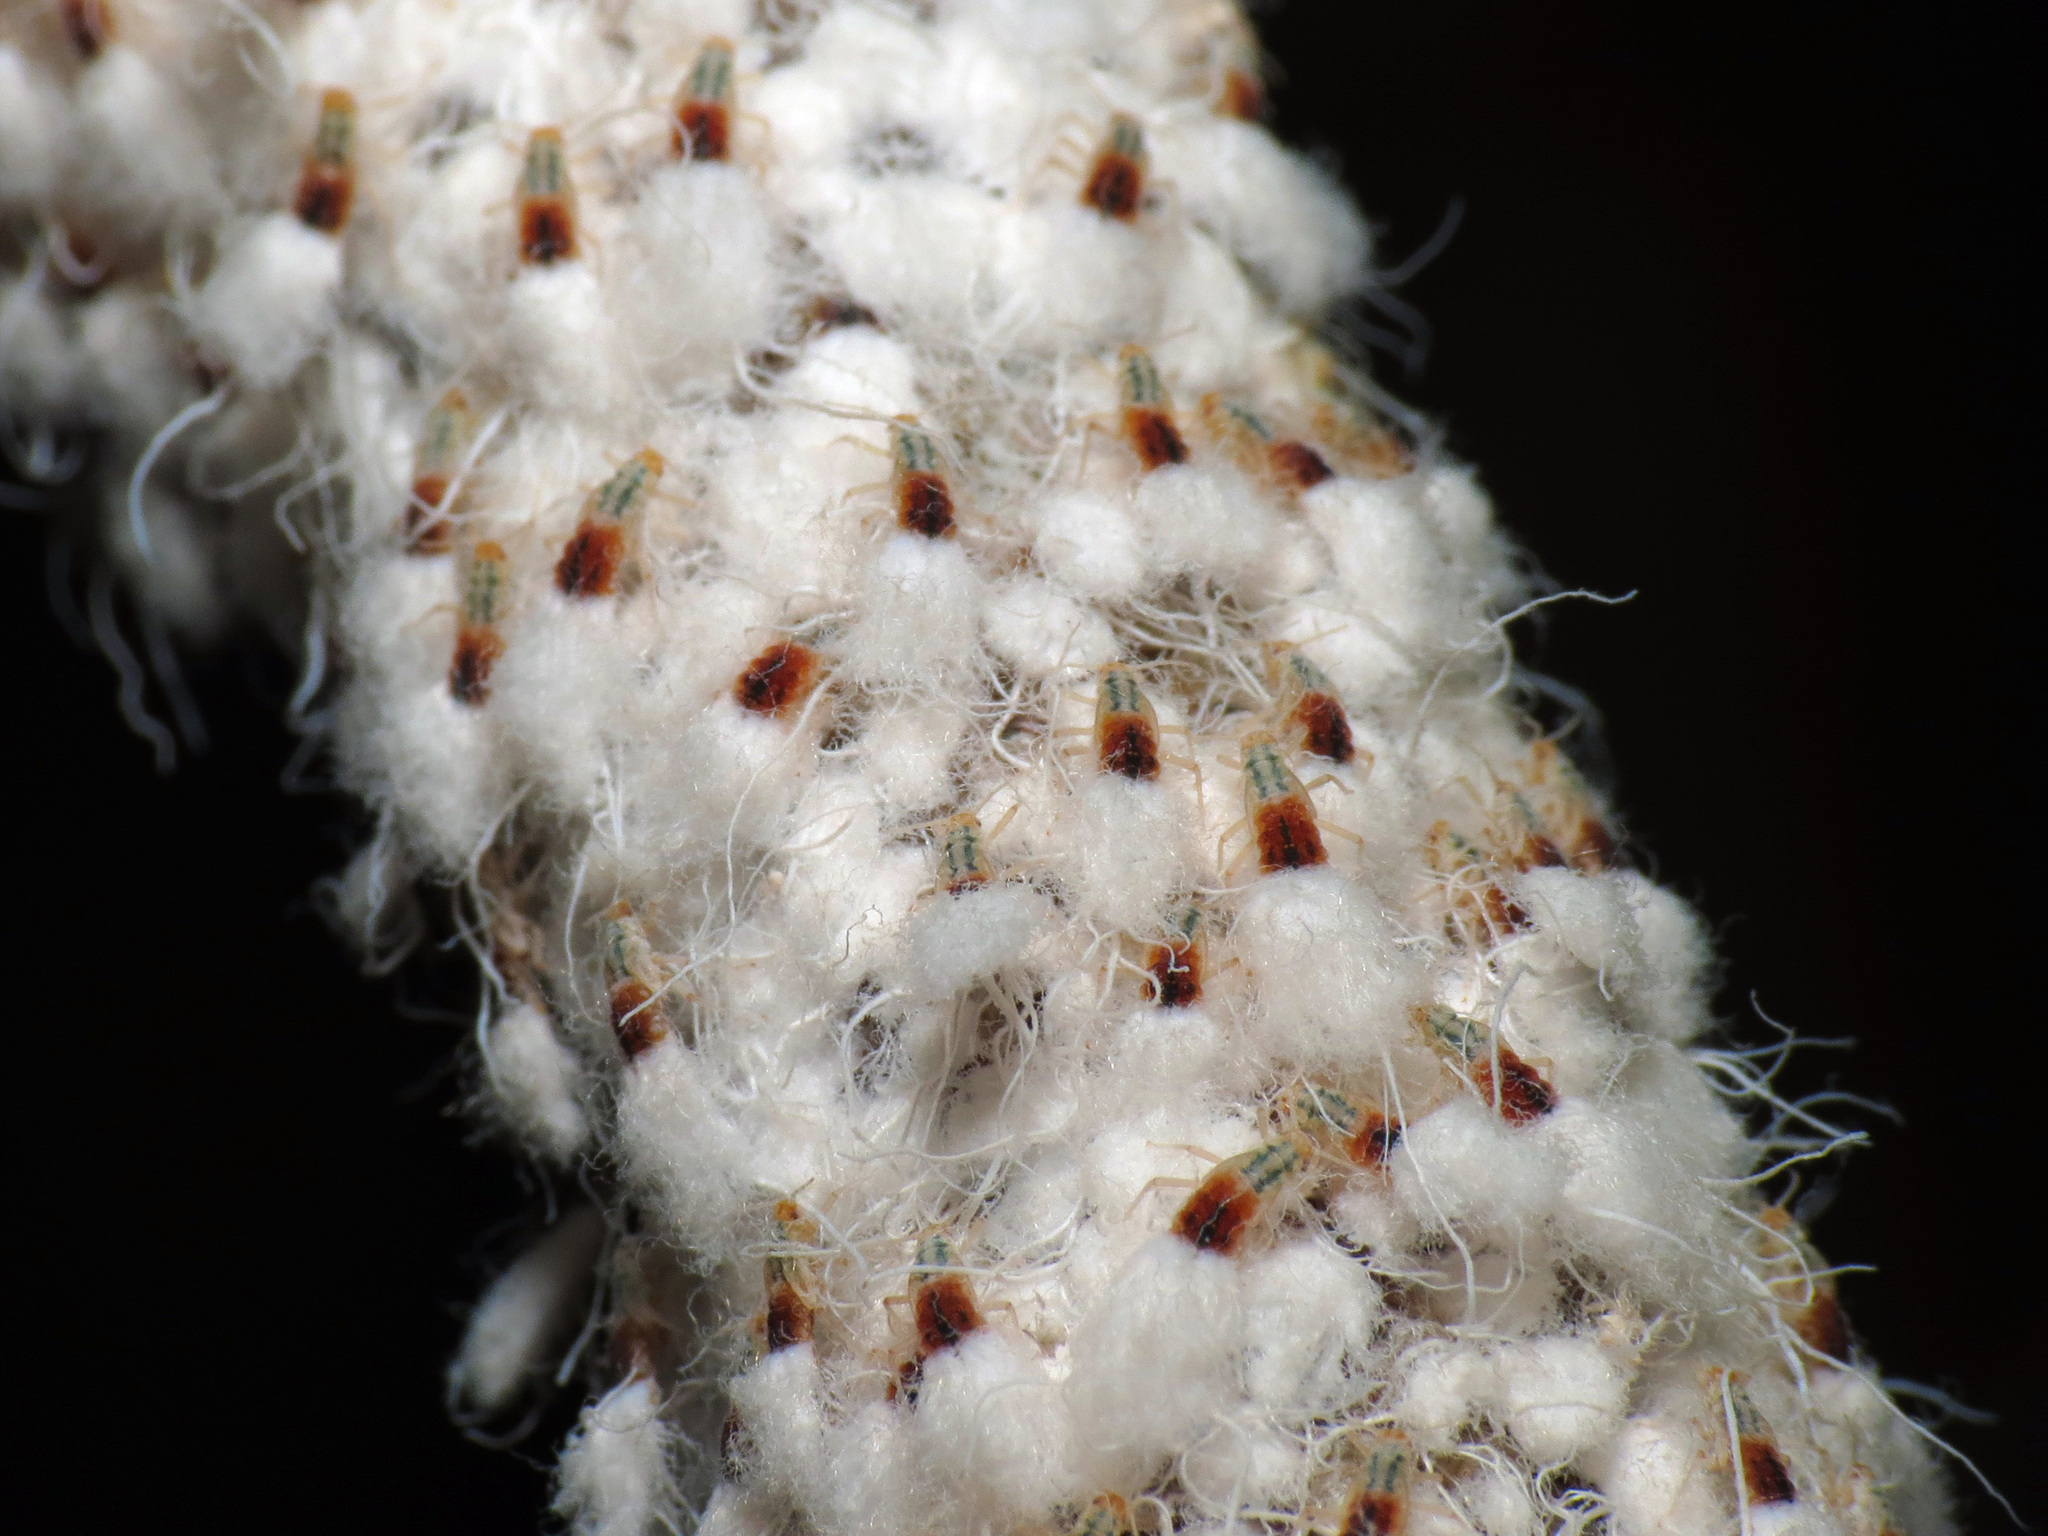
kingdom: Animalia
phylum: Arthropoda
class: Insecta
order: Hemiptera
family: Aphididae
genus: Grylloprociphilus
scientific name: Grylloprociphilus imbricator
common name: Beech blight aphid
